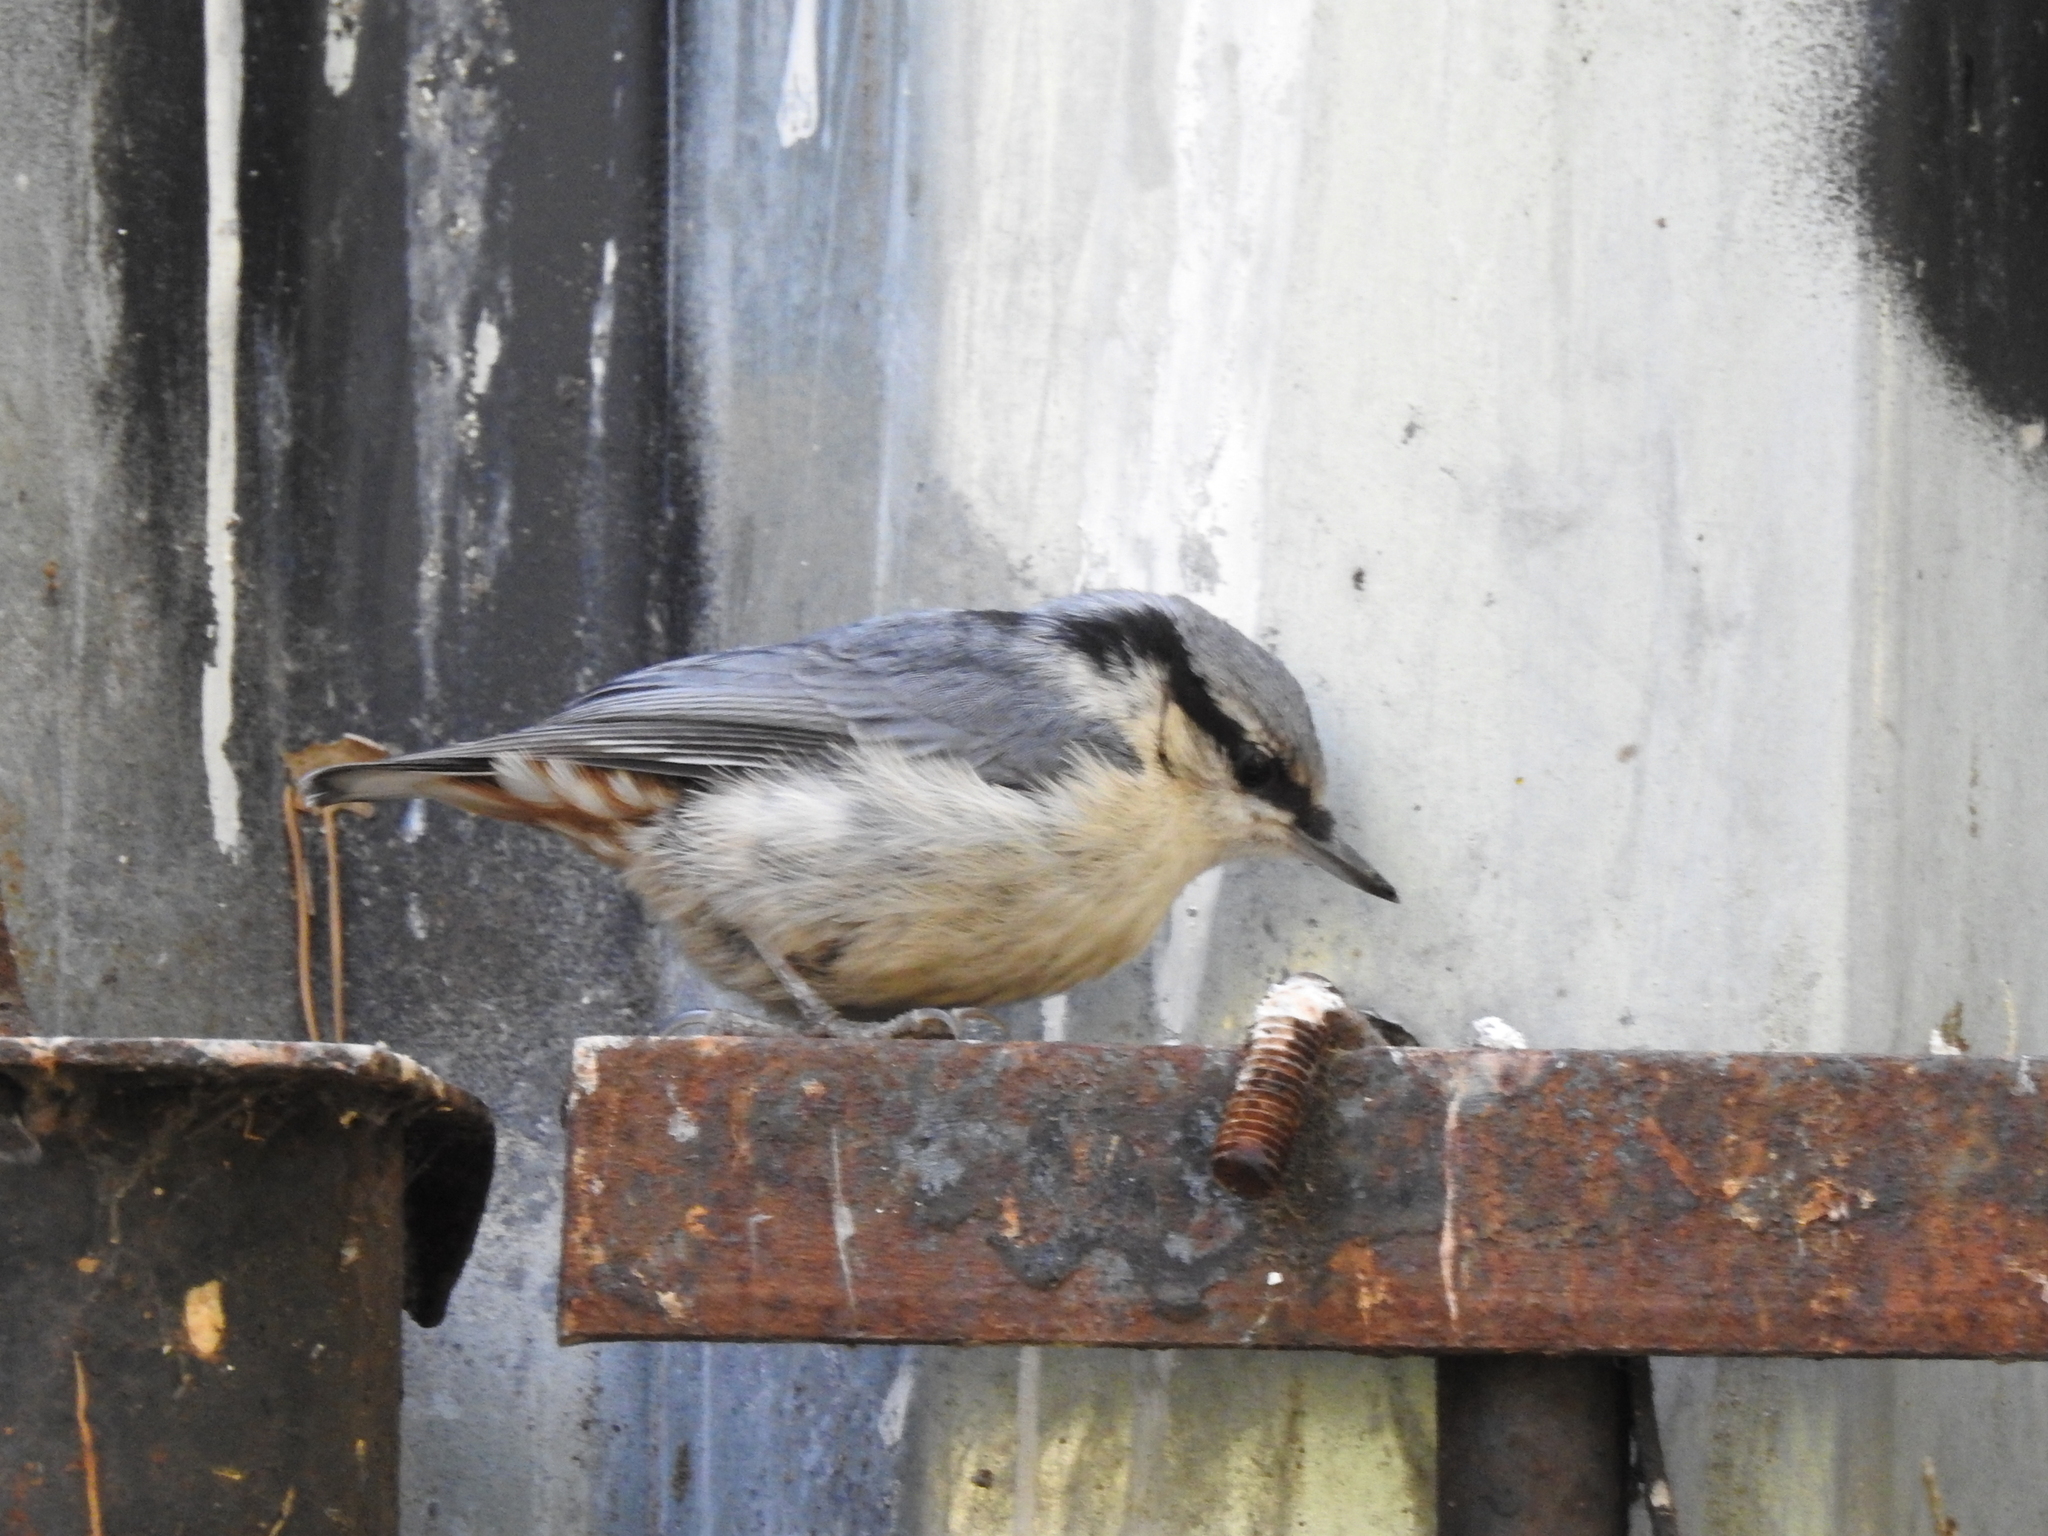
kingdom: Animalia
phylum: Chordata
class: Aves
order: Passeriformes
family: Sittidae
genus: Sitta
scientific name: Sitta europaea
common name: Eurasian nuthatch
